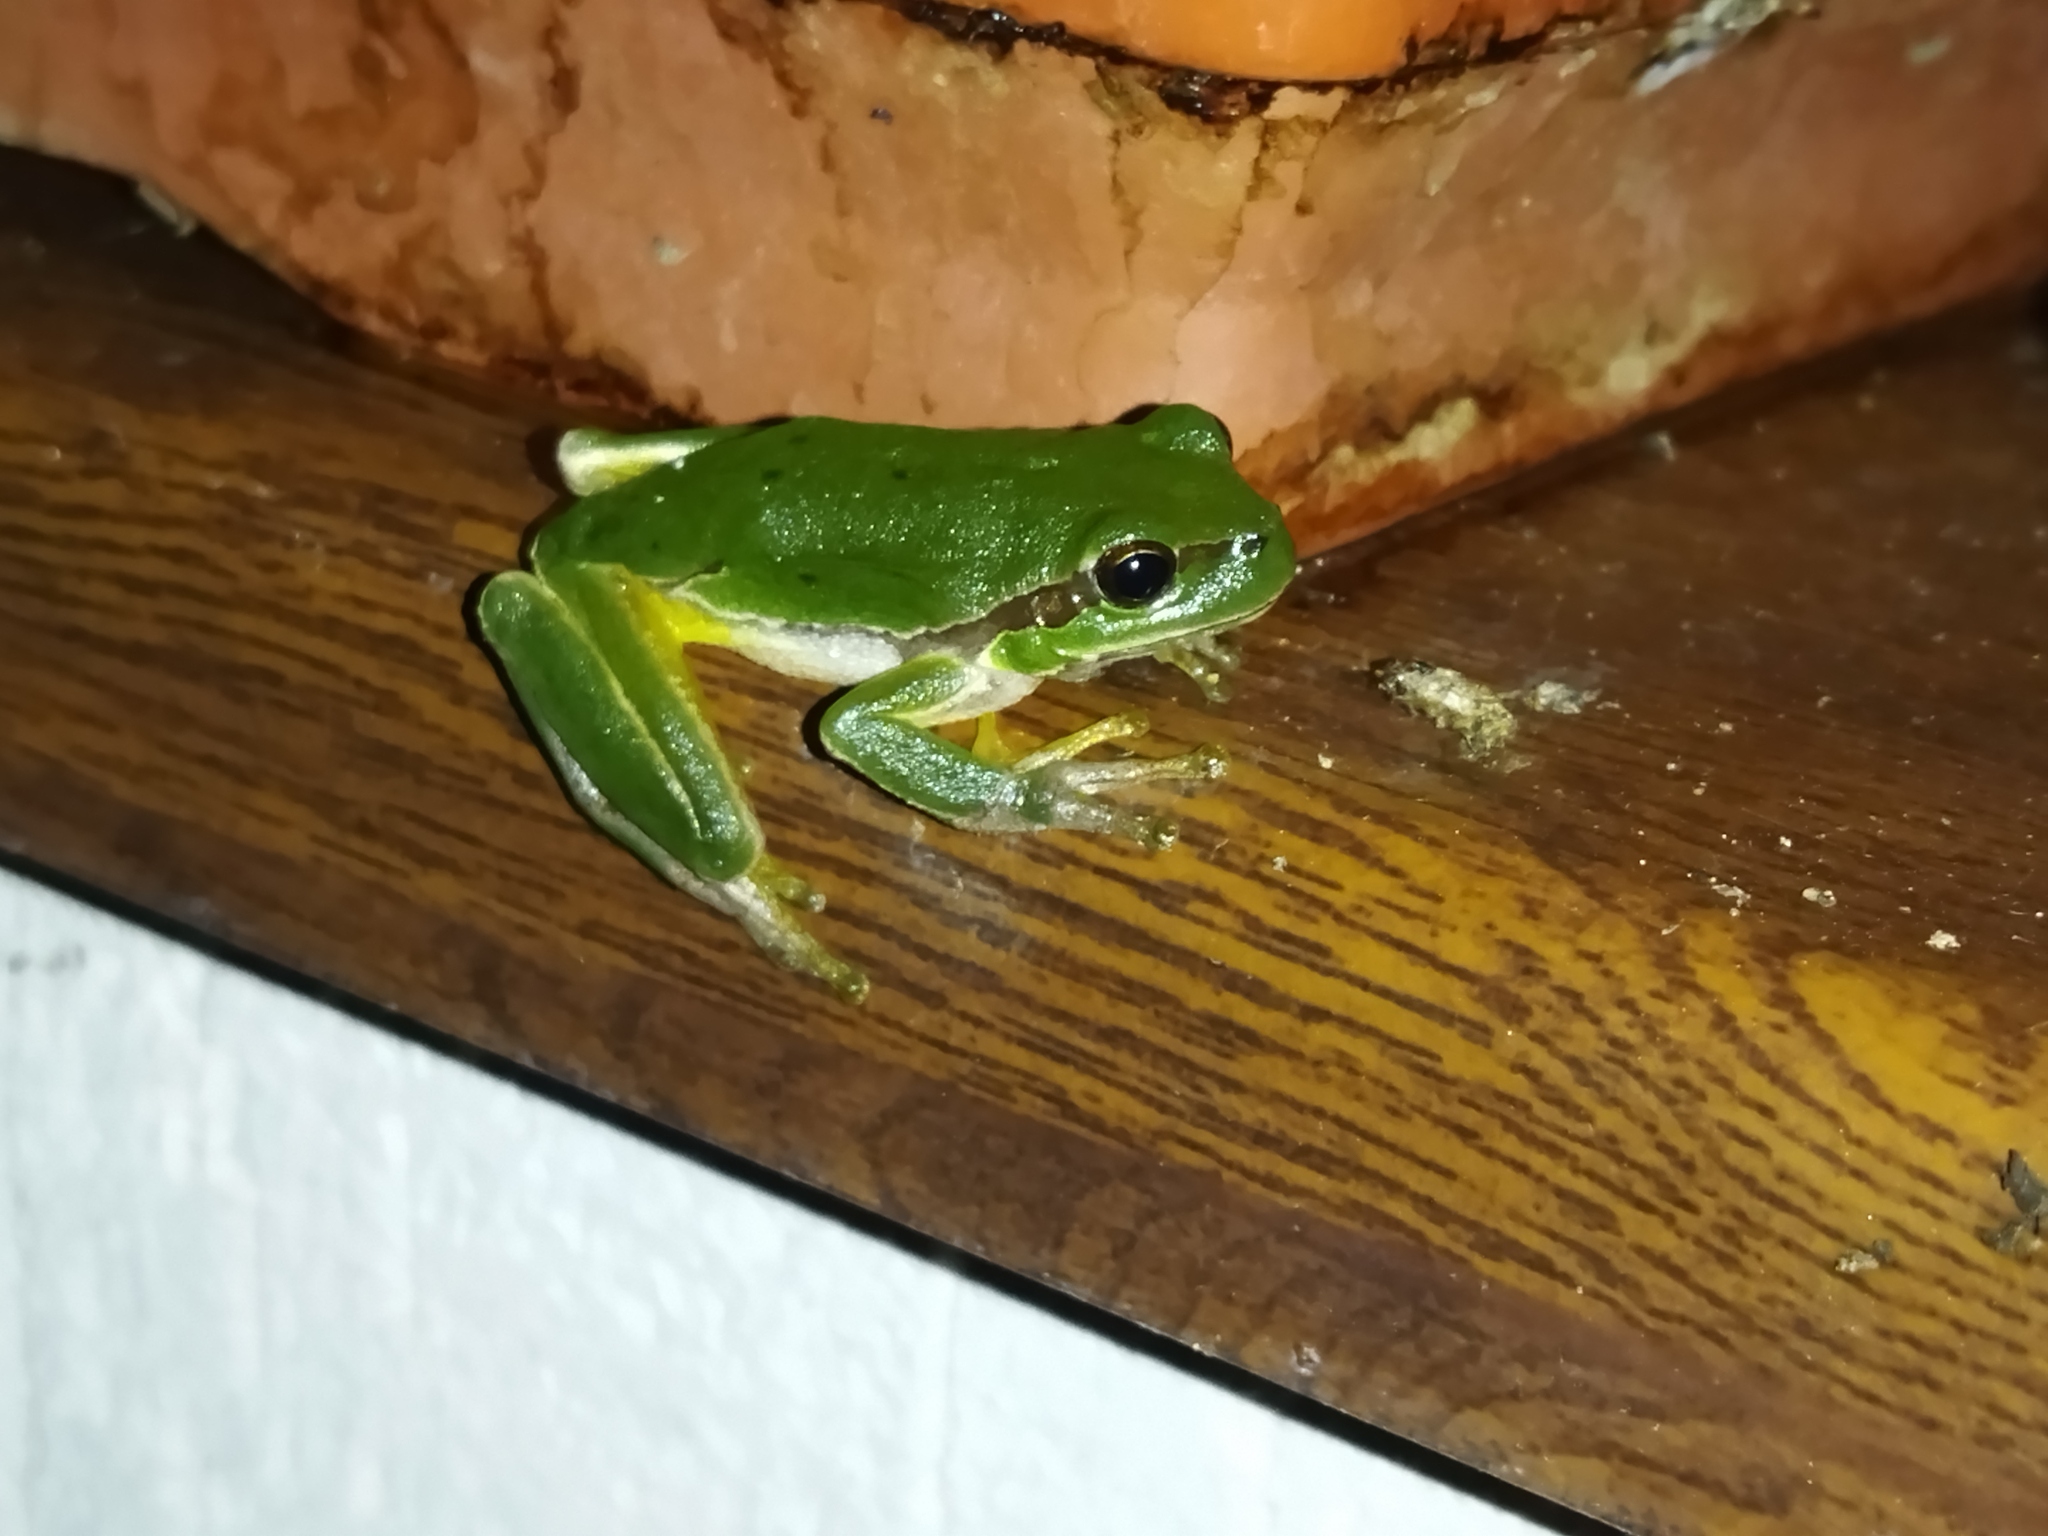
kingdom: Animalia
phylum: Chordata
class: Amphibia
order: Anura
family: Hylidae
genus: Hyla
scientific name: Hyla orientalis
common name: Caucasian treefrog
